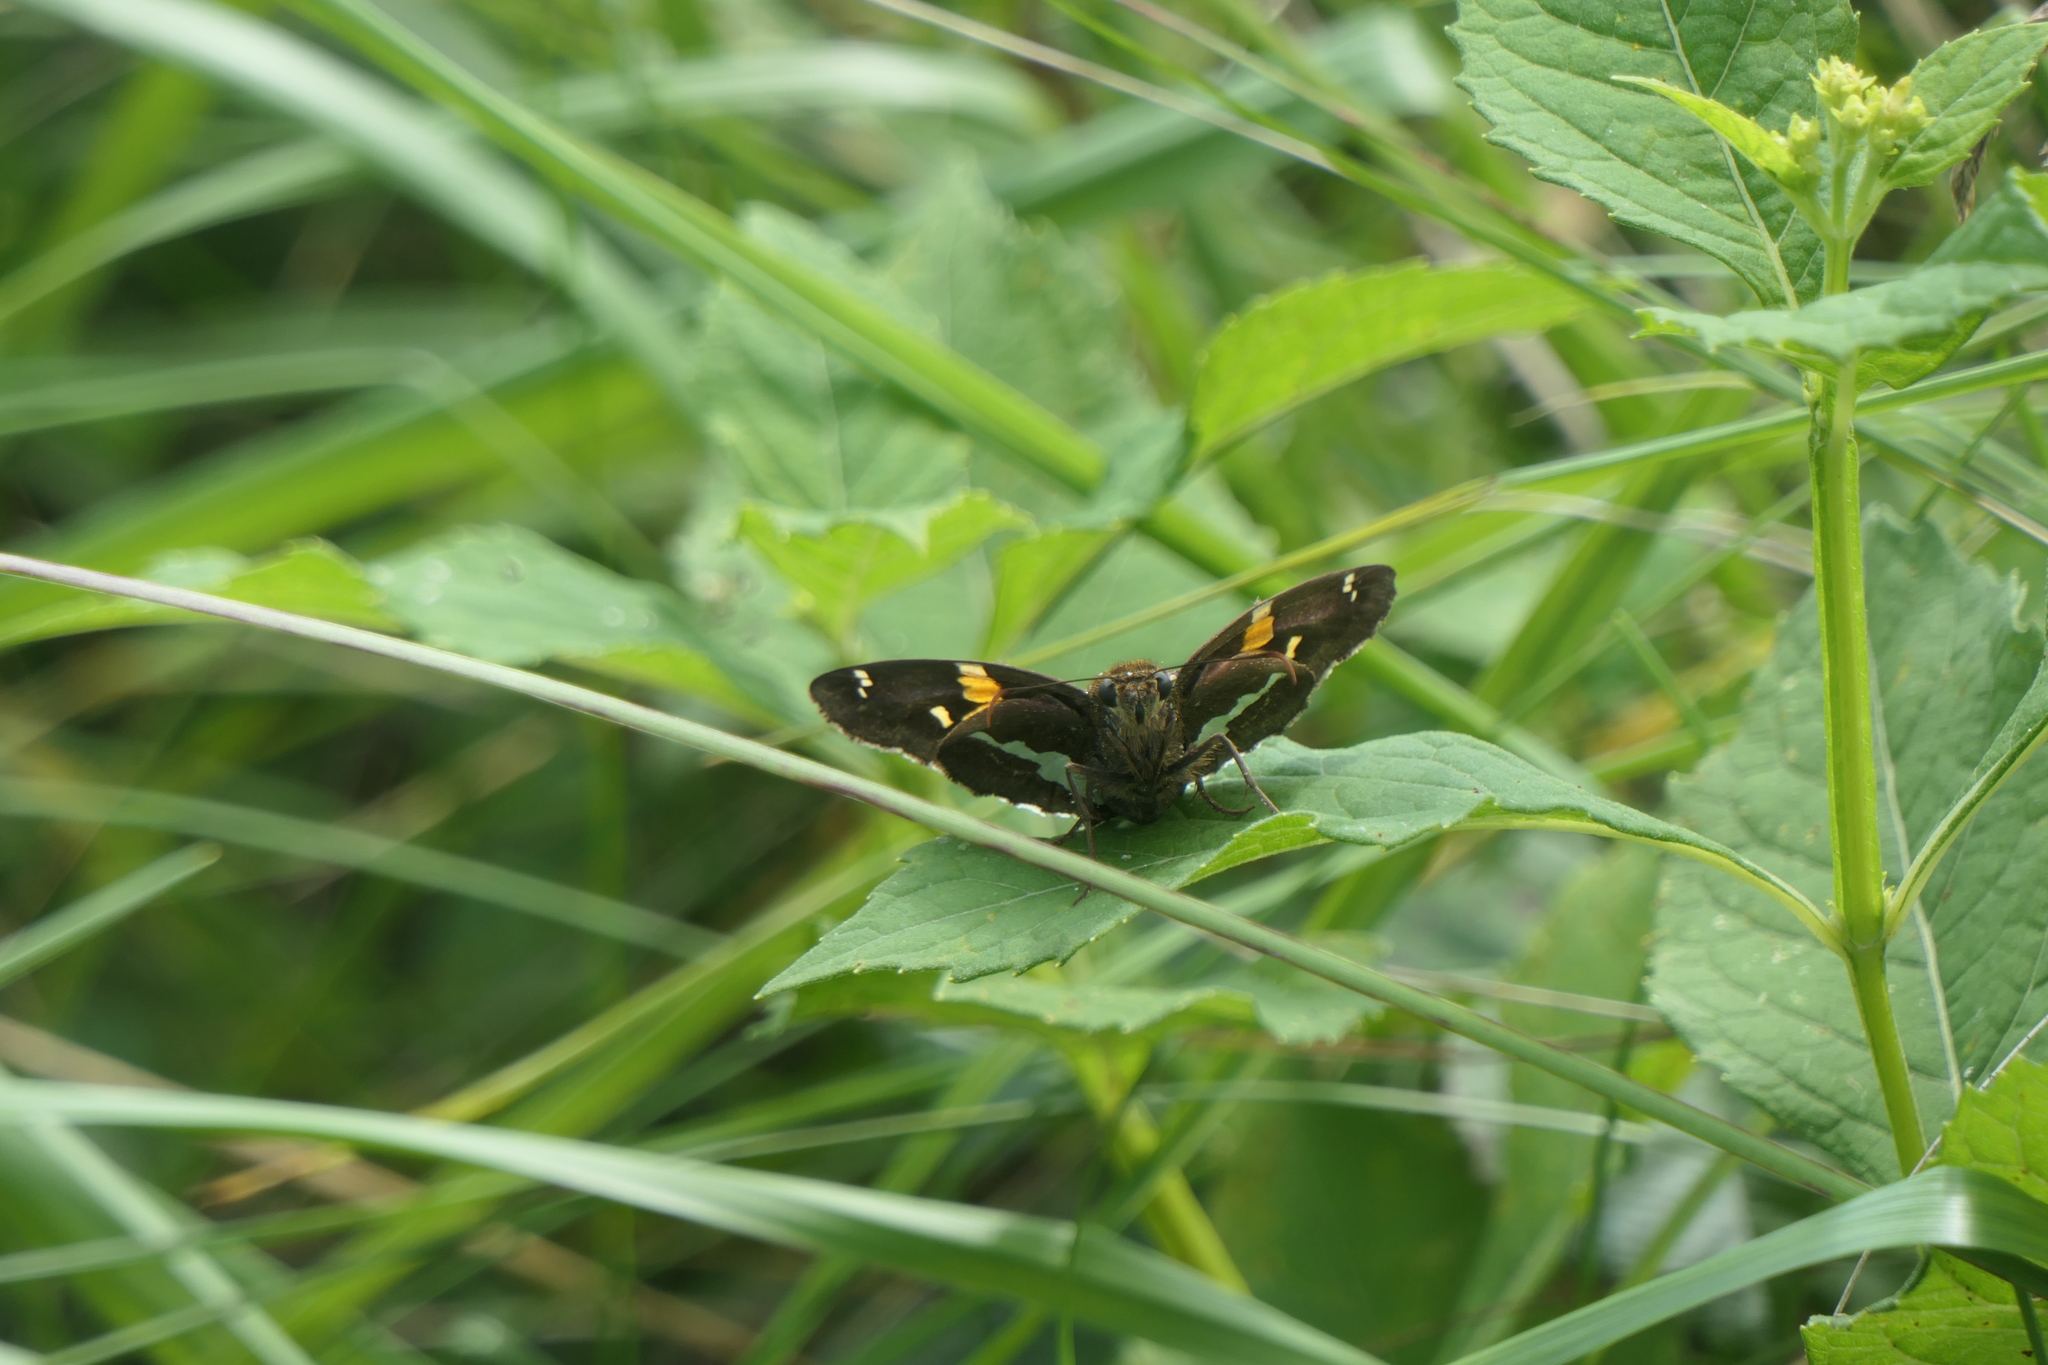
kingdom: Animalia
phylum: Arthropoda
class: Insecta
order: Lepidoptera
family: Hesperiidae
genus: Epargyreus
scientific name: Epargyreus clarus
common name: Silver-spotted skipper
